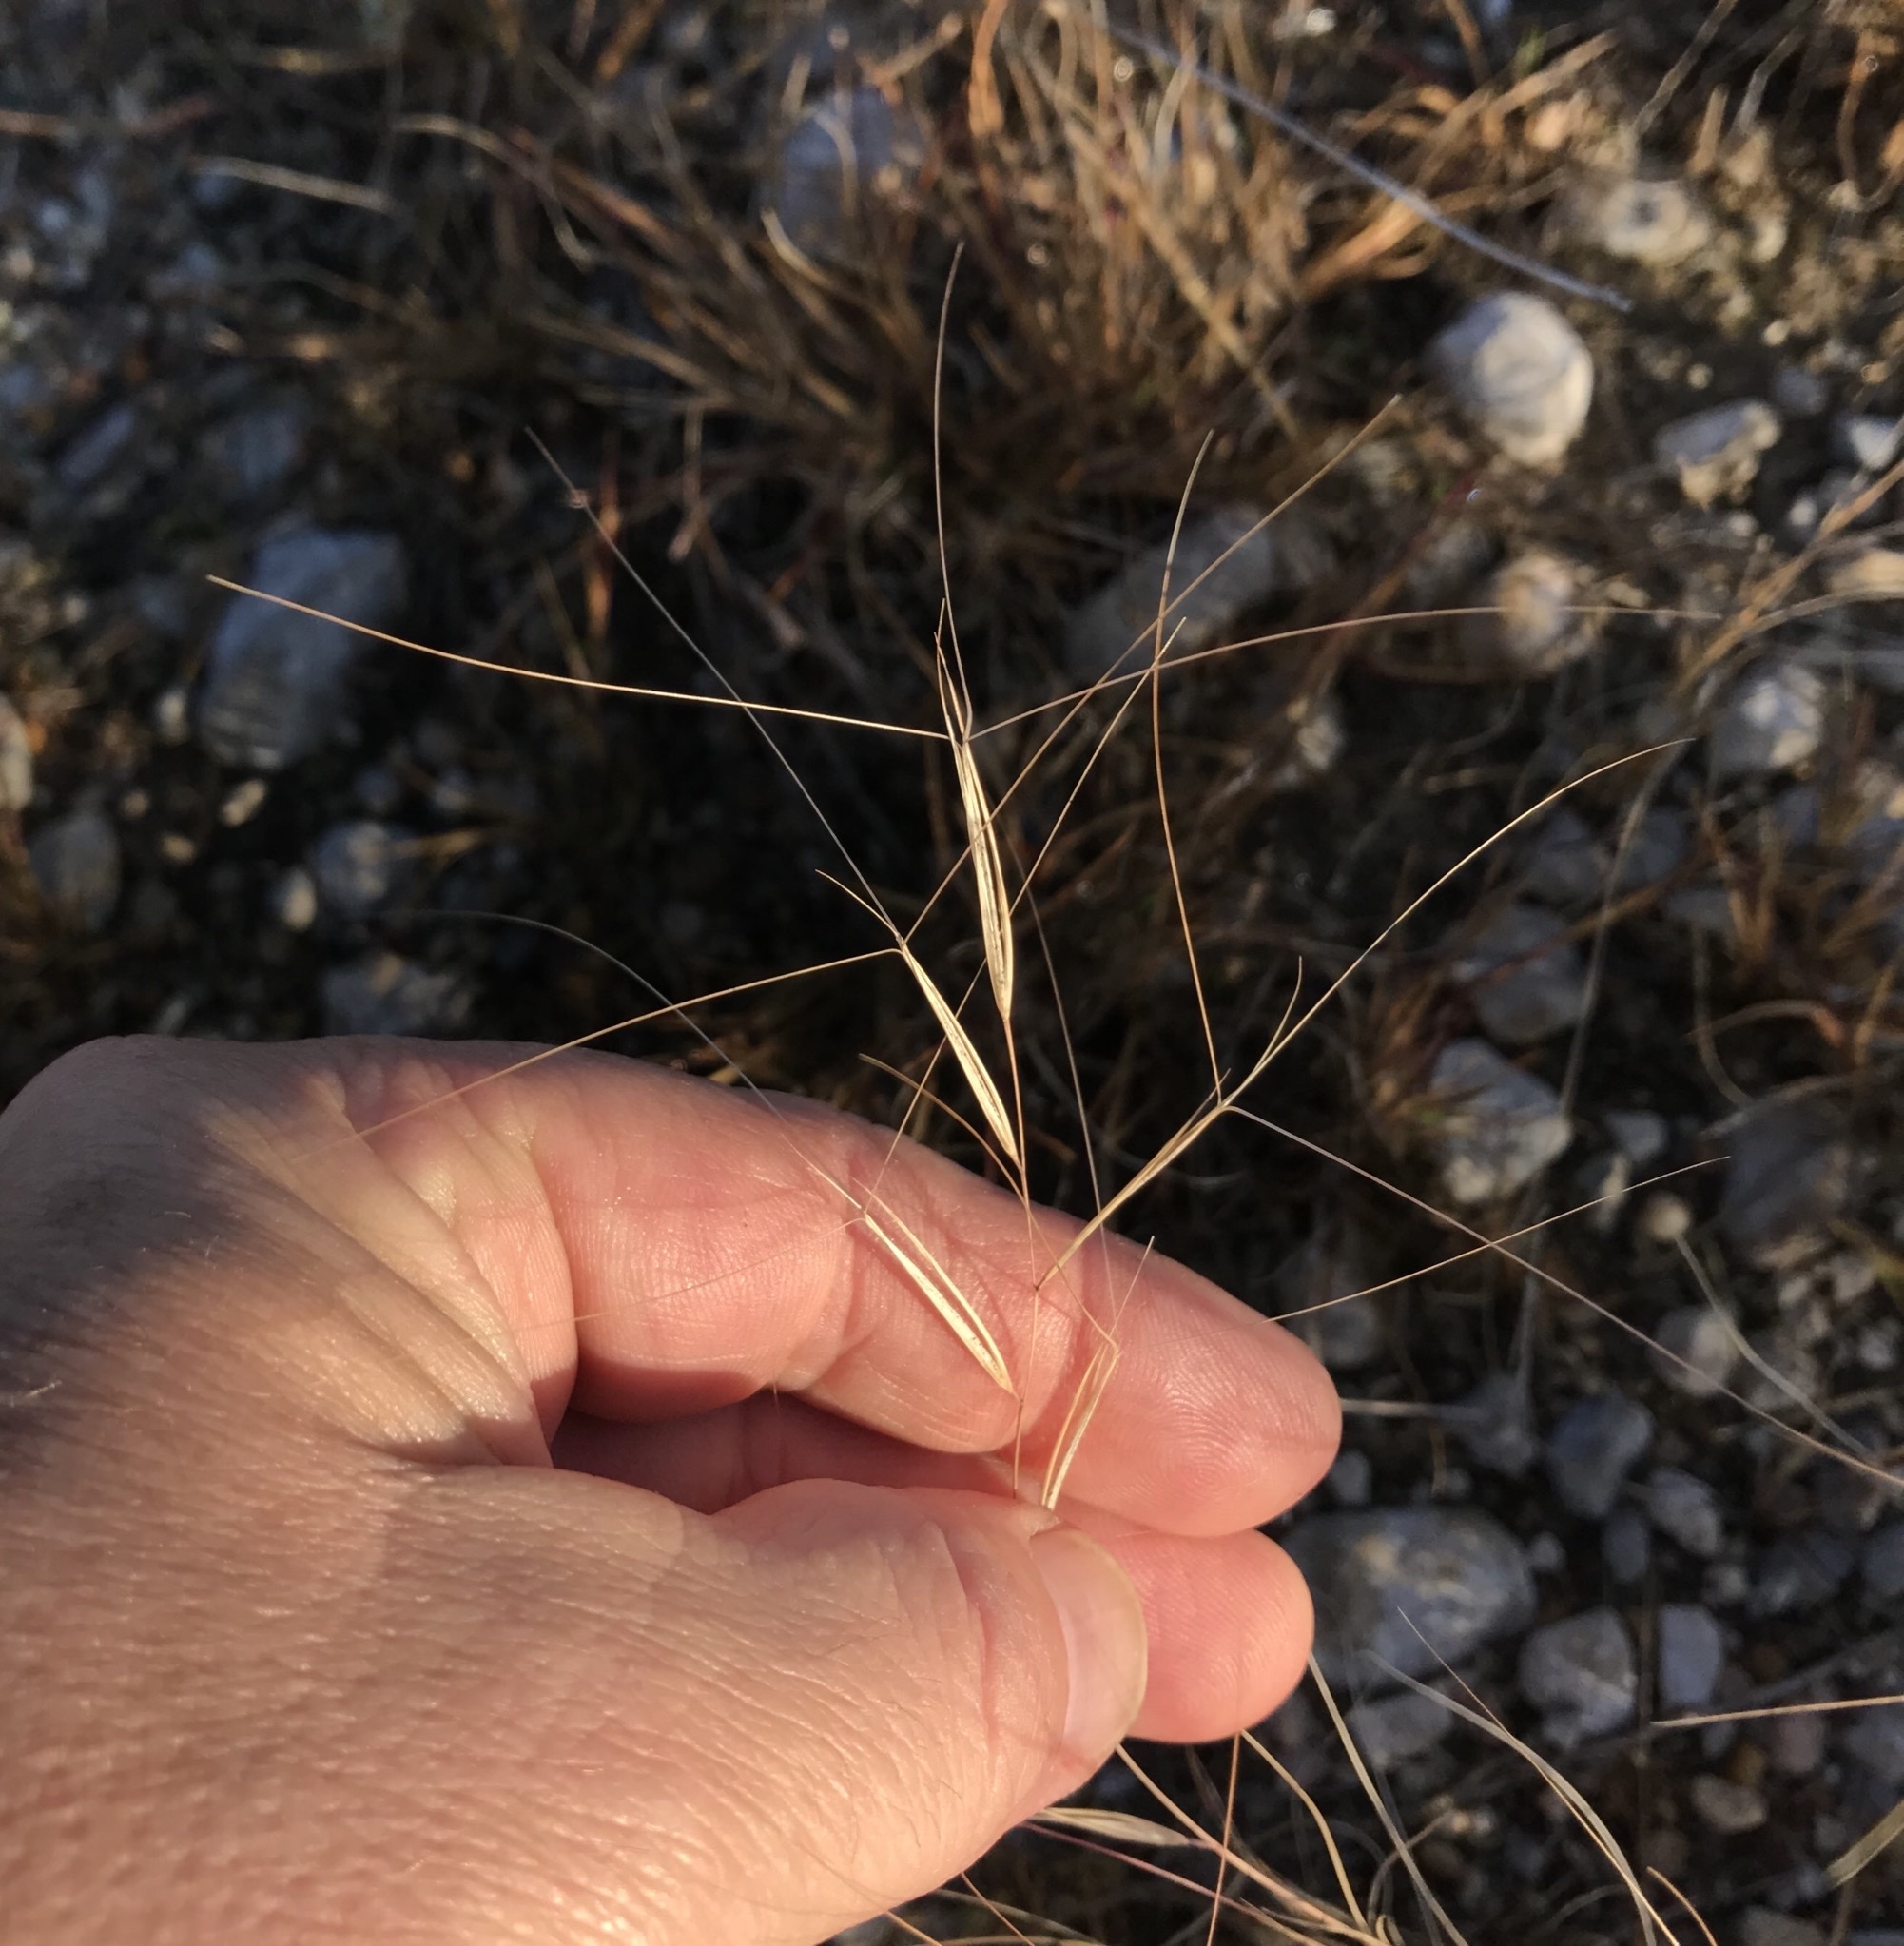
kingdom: Plantae
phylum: Tracheophyta
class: Liliopsida
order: Poales
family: Poaceae
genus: Aristida
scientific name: Aristida oligantha
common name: Few-flowered aristida
